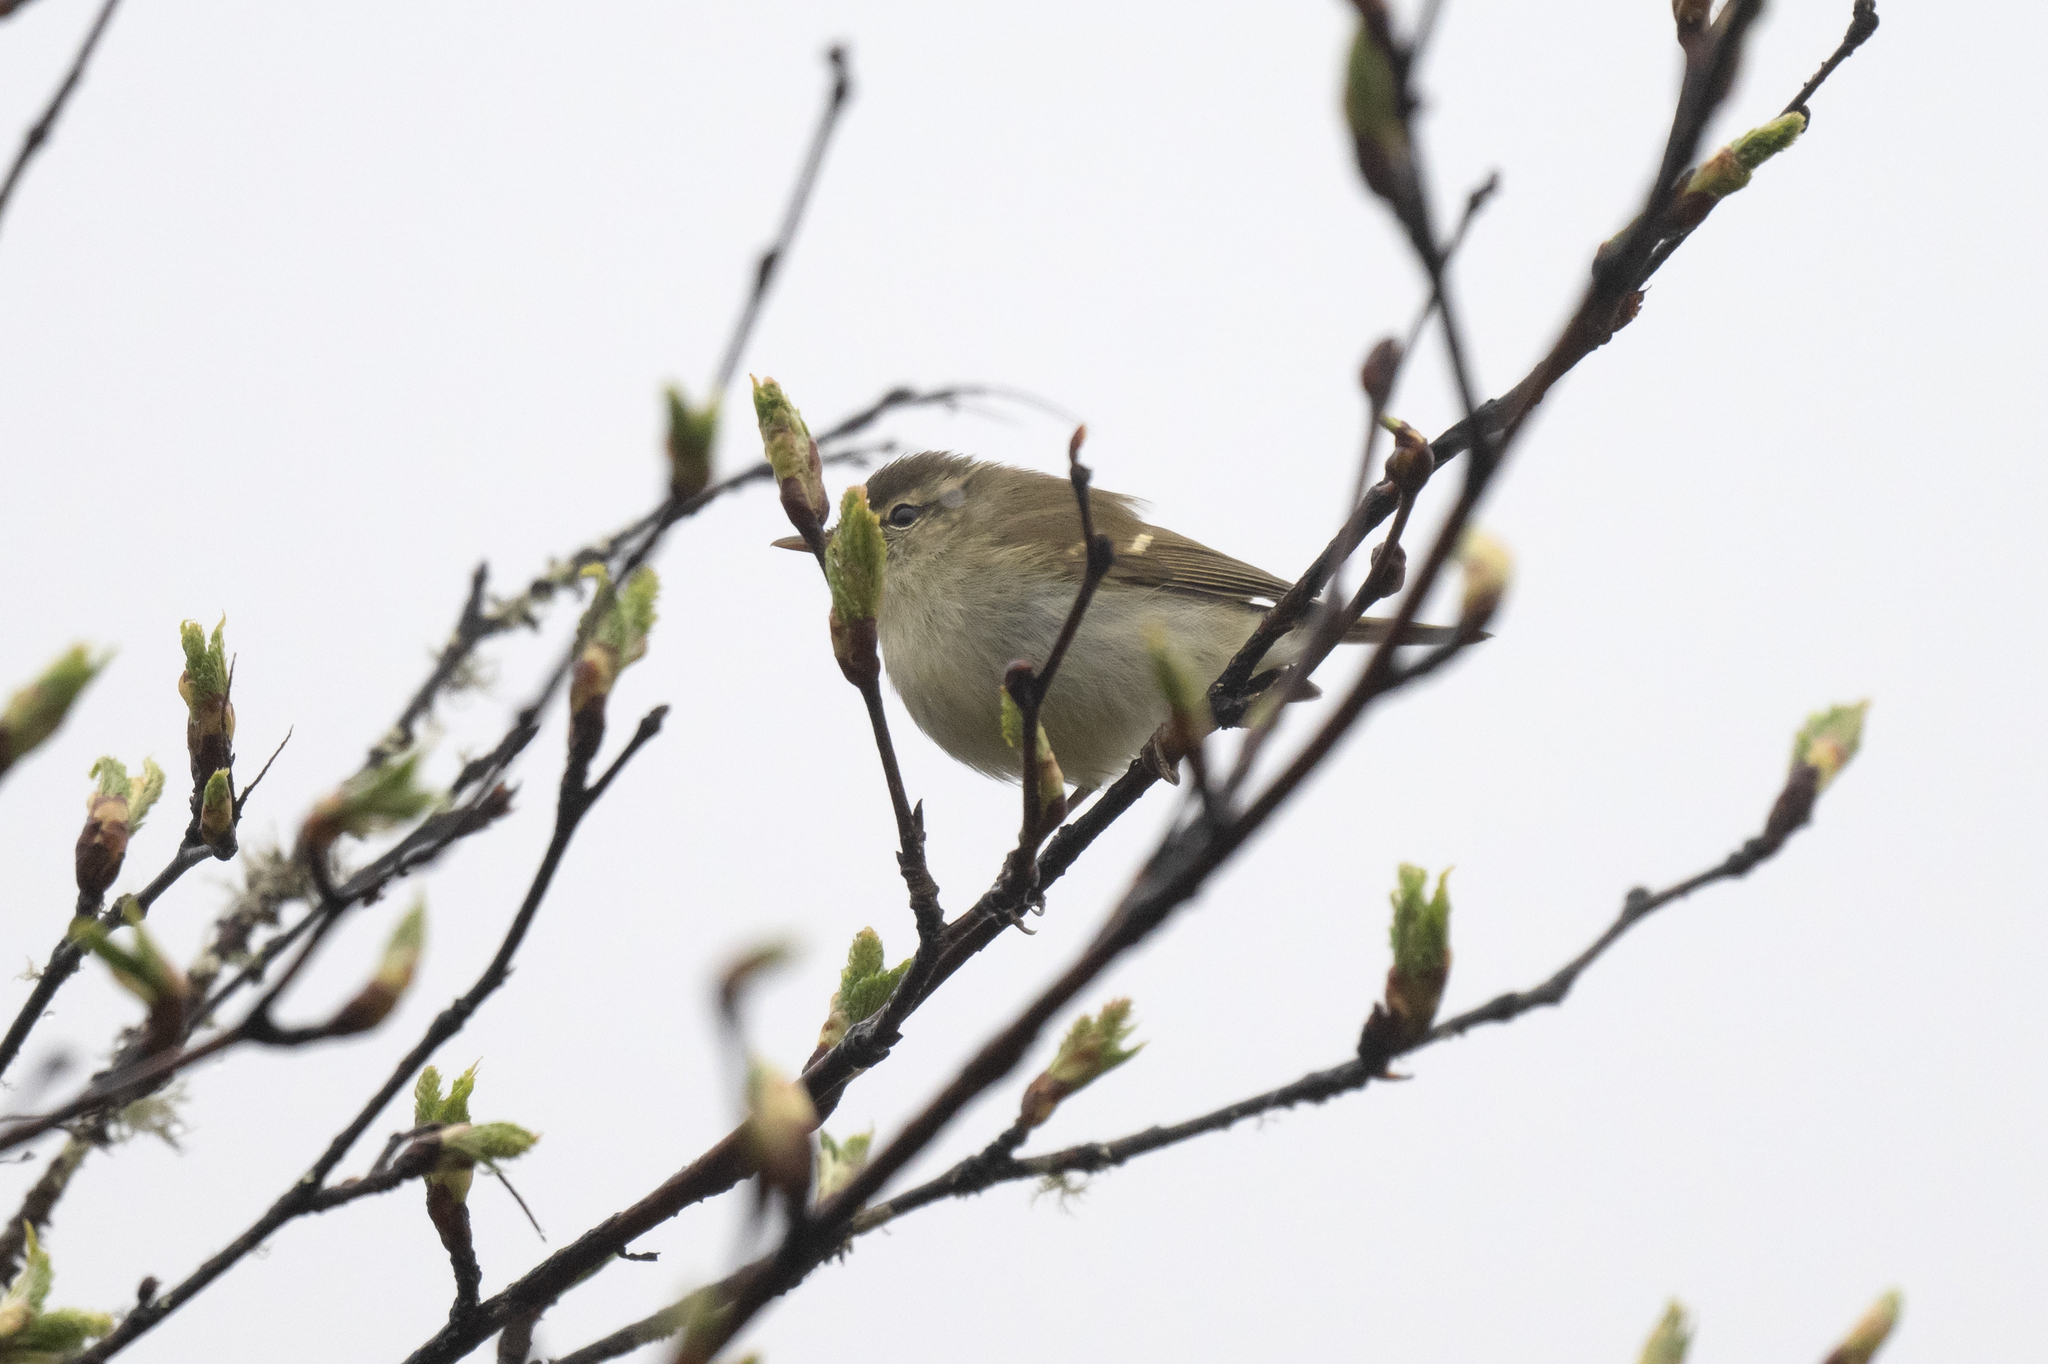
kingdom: Animalia
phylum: Chordata
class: Aves
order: Passeriformes
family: Phylloscopidae
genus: Phylloscopus
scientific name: Phylloscopus trochiloides
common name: Greenish warbler
